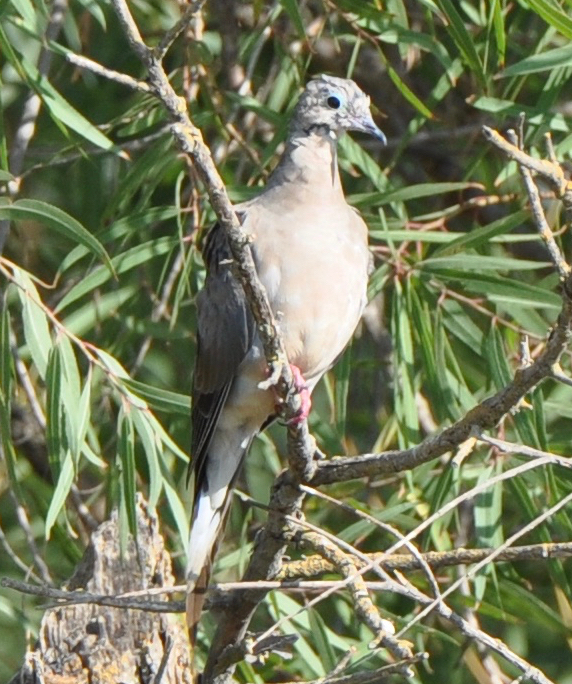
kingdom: Animalia
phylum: Chordata
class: Aves
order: Columbiformes
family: Columbidae
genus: Zenaida
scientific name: Zenaida macroura
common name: Mourning dove
